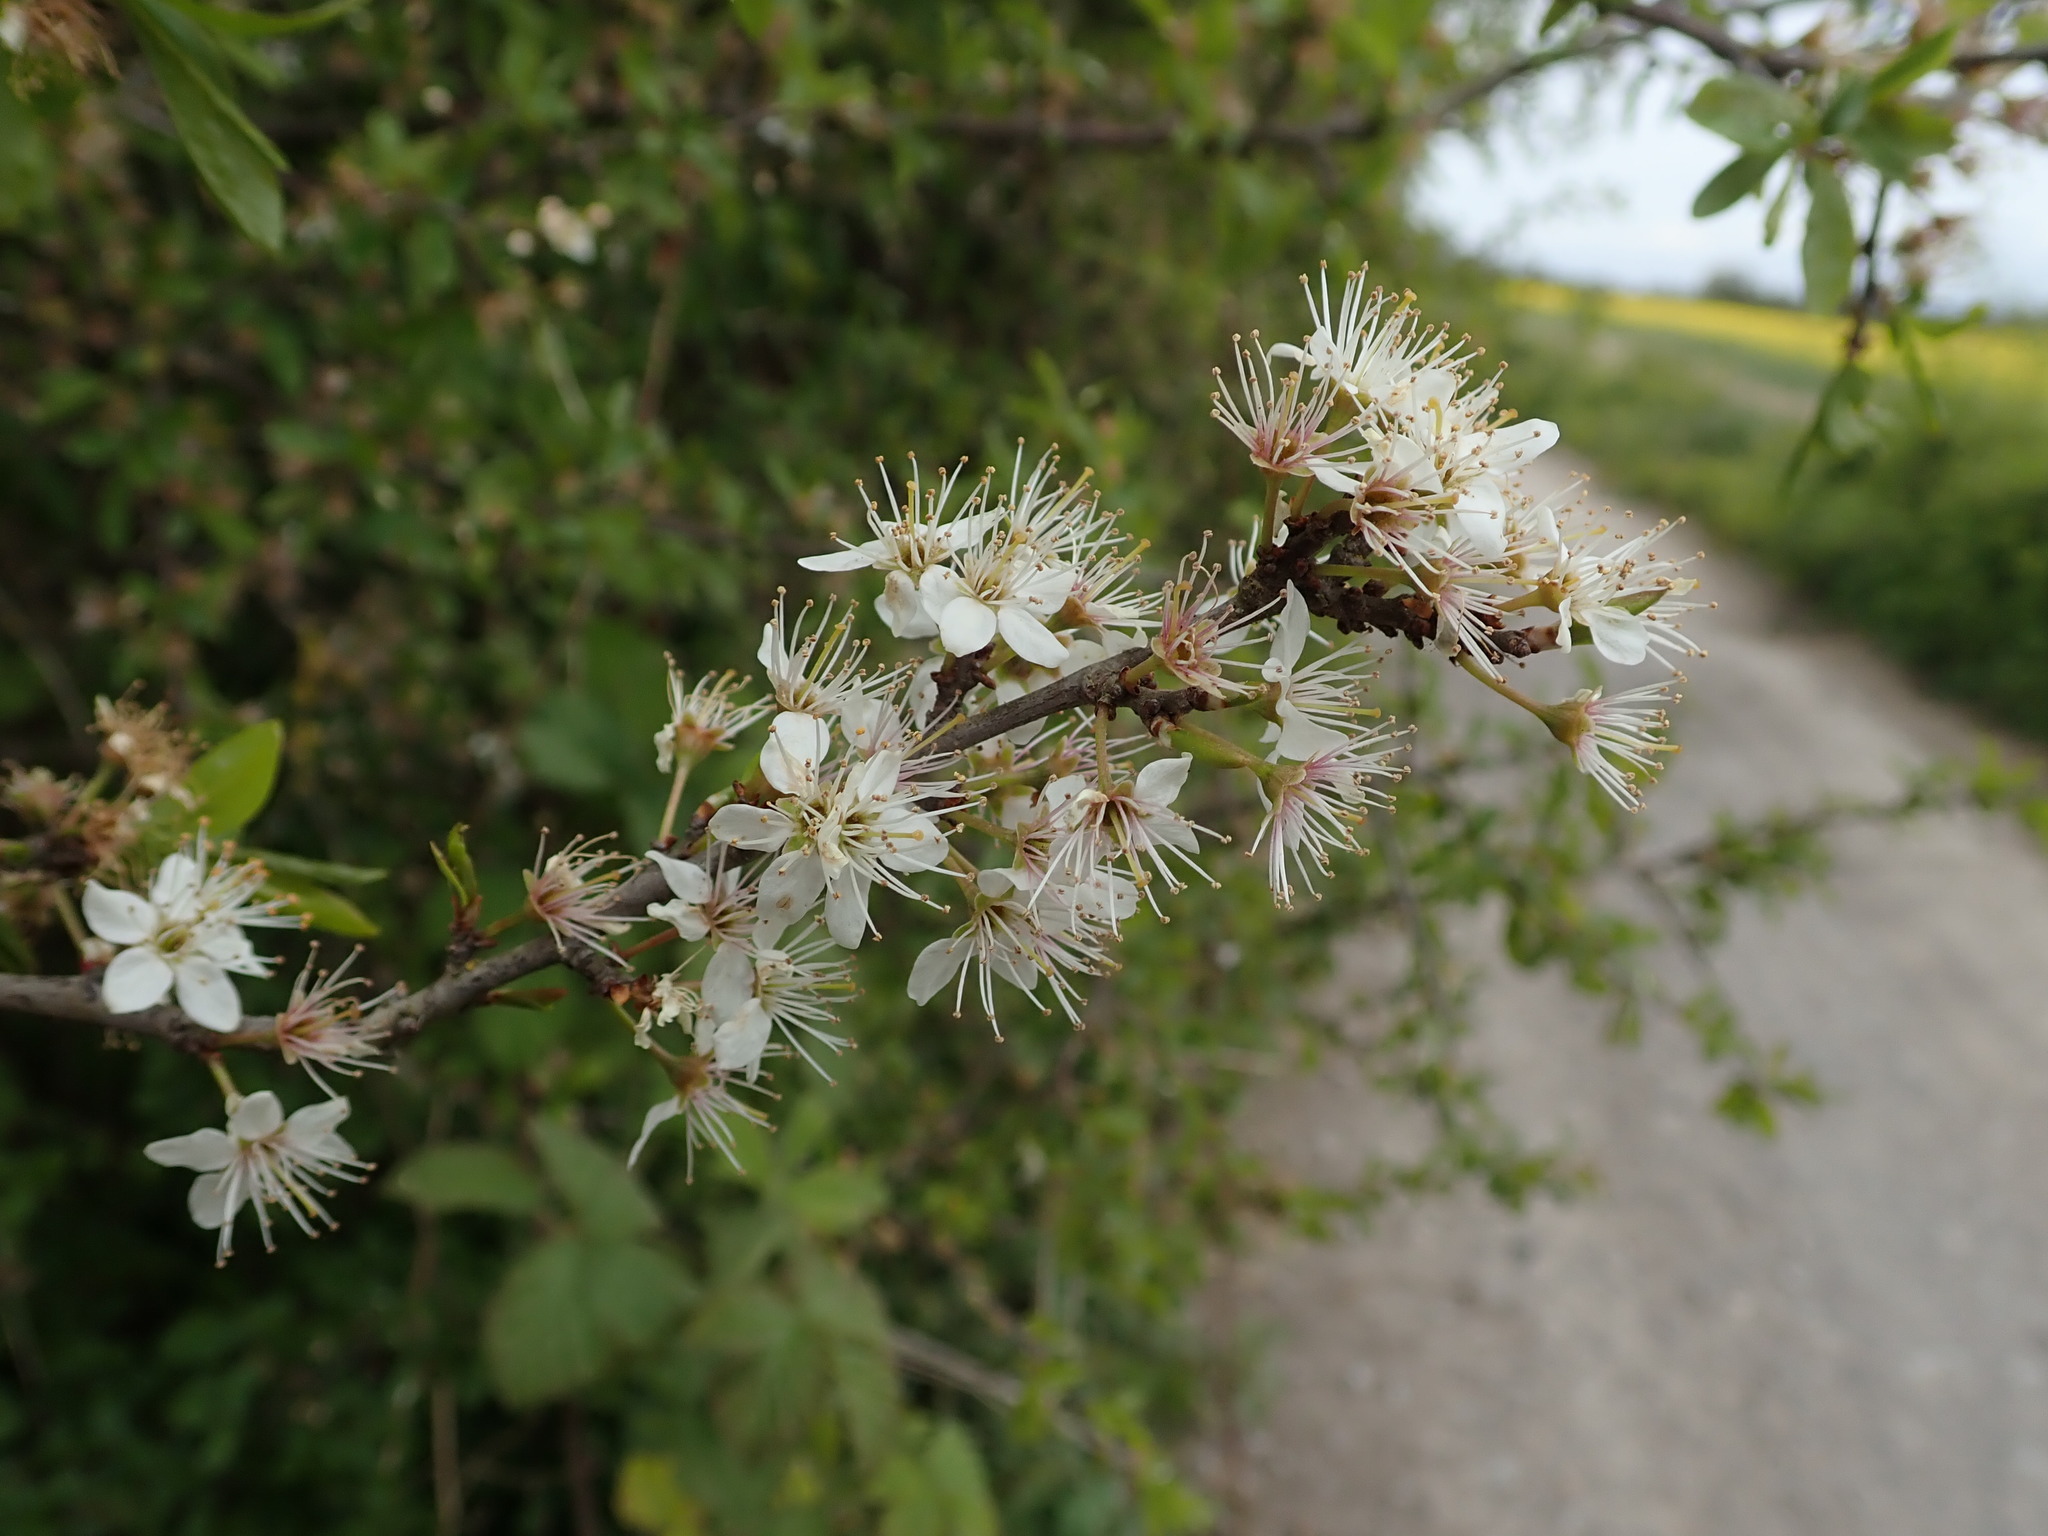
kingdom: Plantae
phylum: Tracheophyta
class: Magnoliopsida
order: Rosales
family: Rosaceae
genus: Prunus
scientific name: Prunus spinosa
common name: Blackthorn
